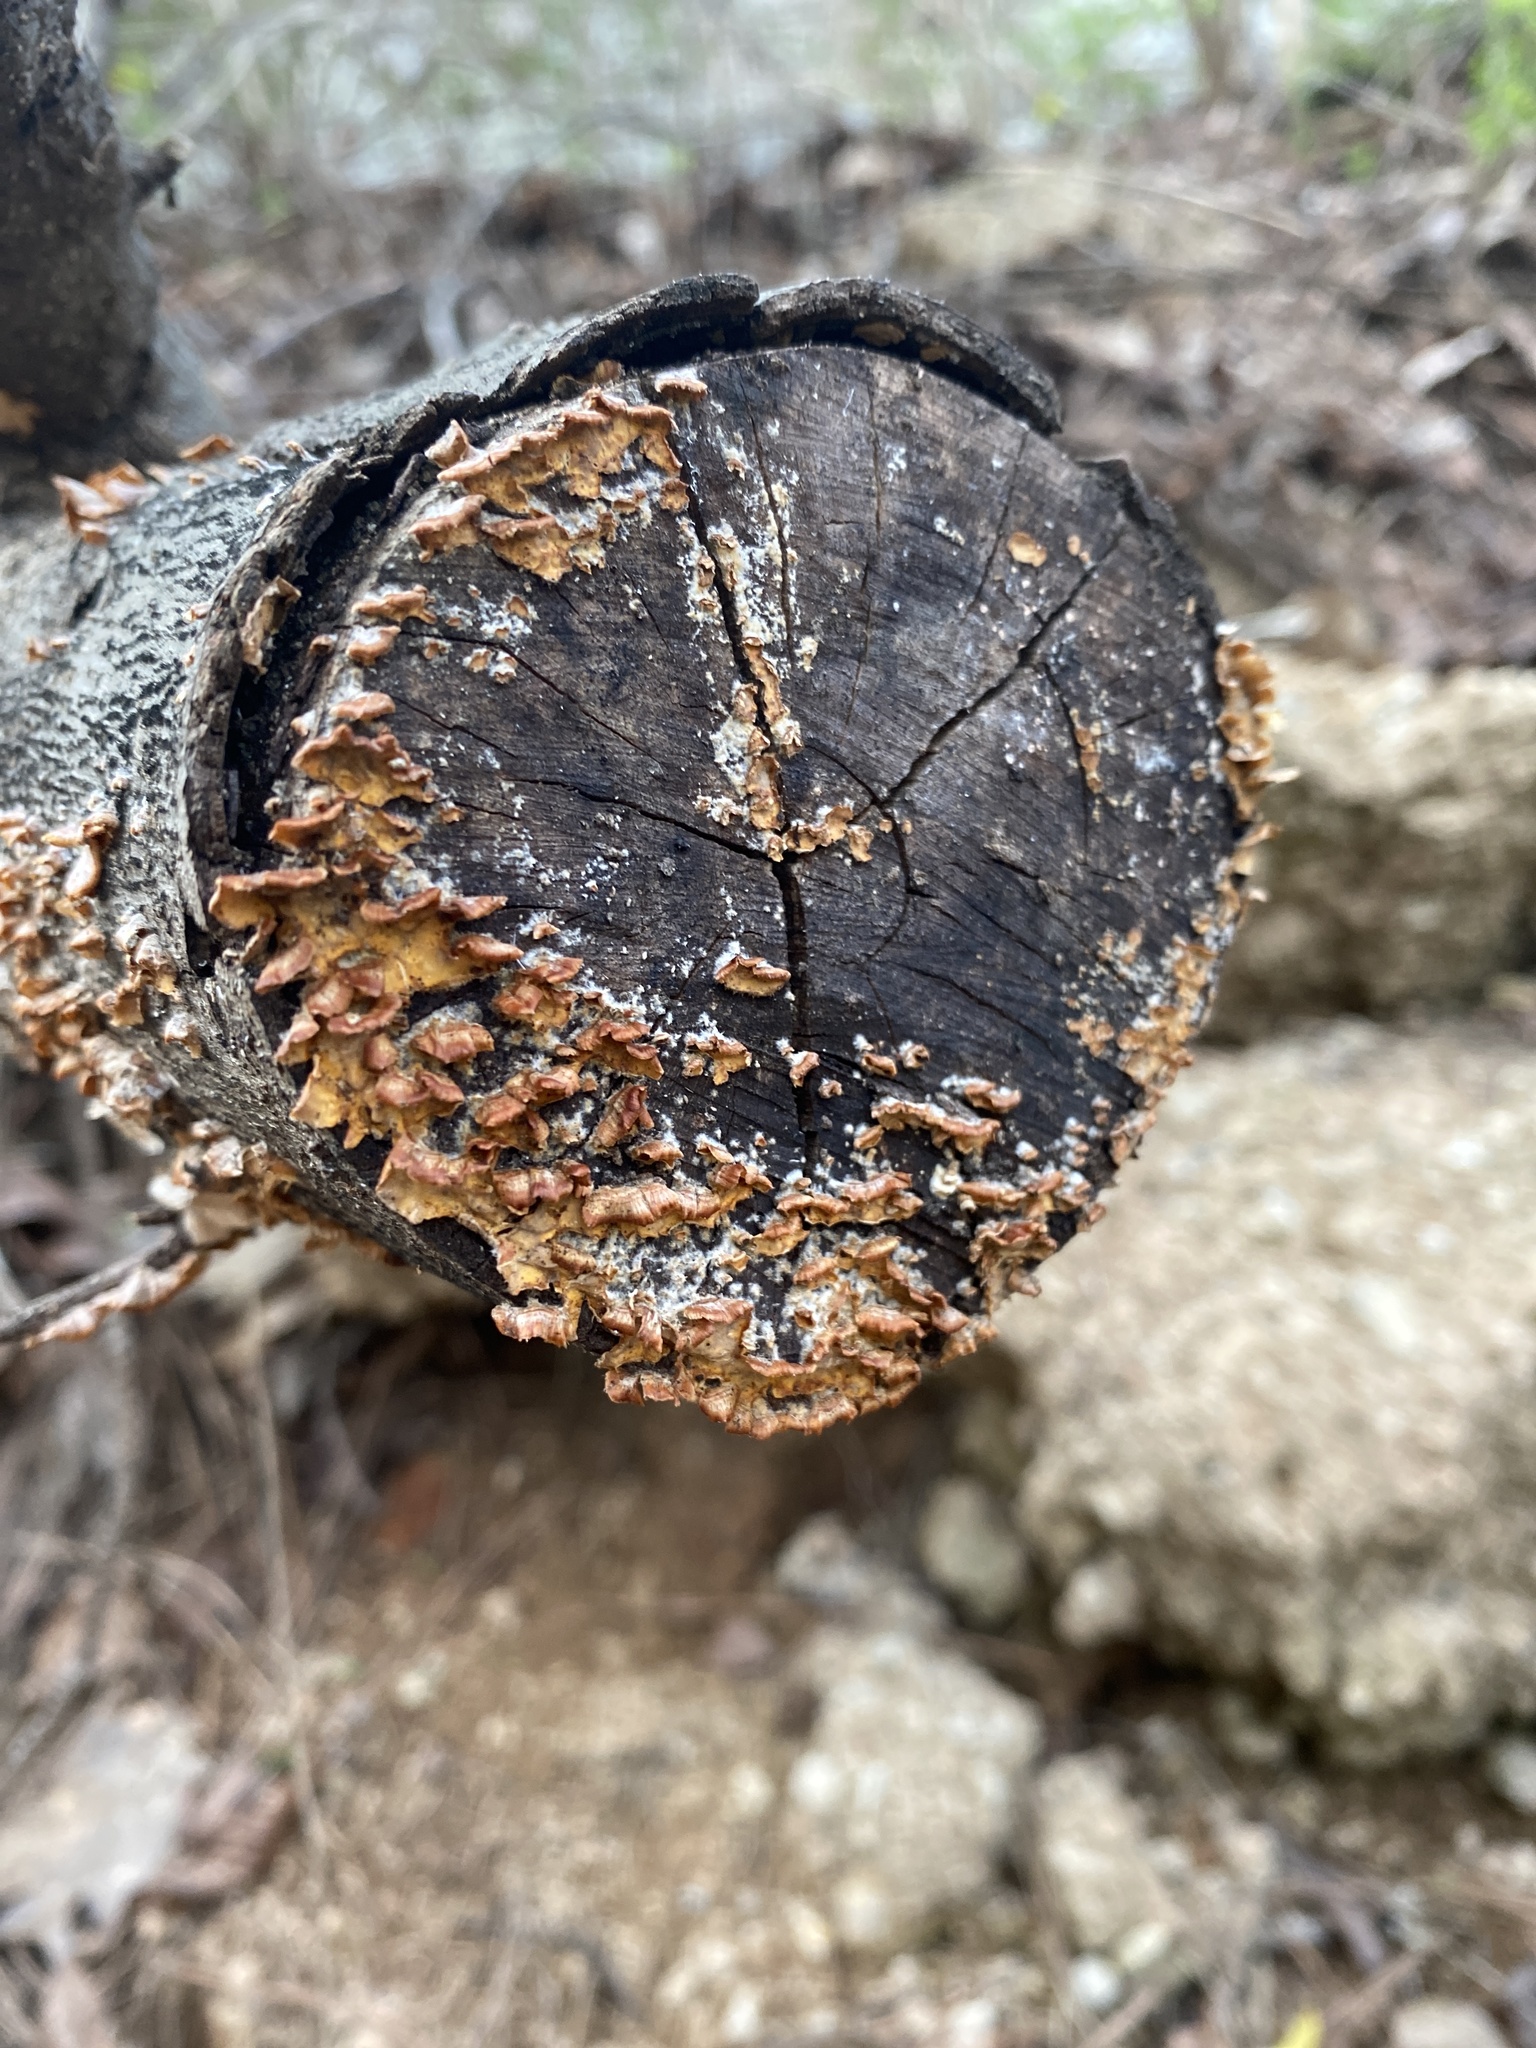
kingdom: Fungi
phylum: Basidiomycota
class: Agaricomycetes
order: Russulales
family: Stereaceae
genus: Stereum
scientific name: Stereum complicatum
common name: Crowded parchment
